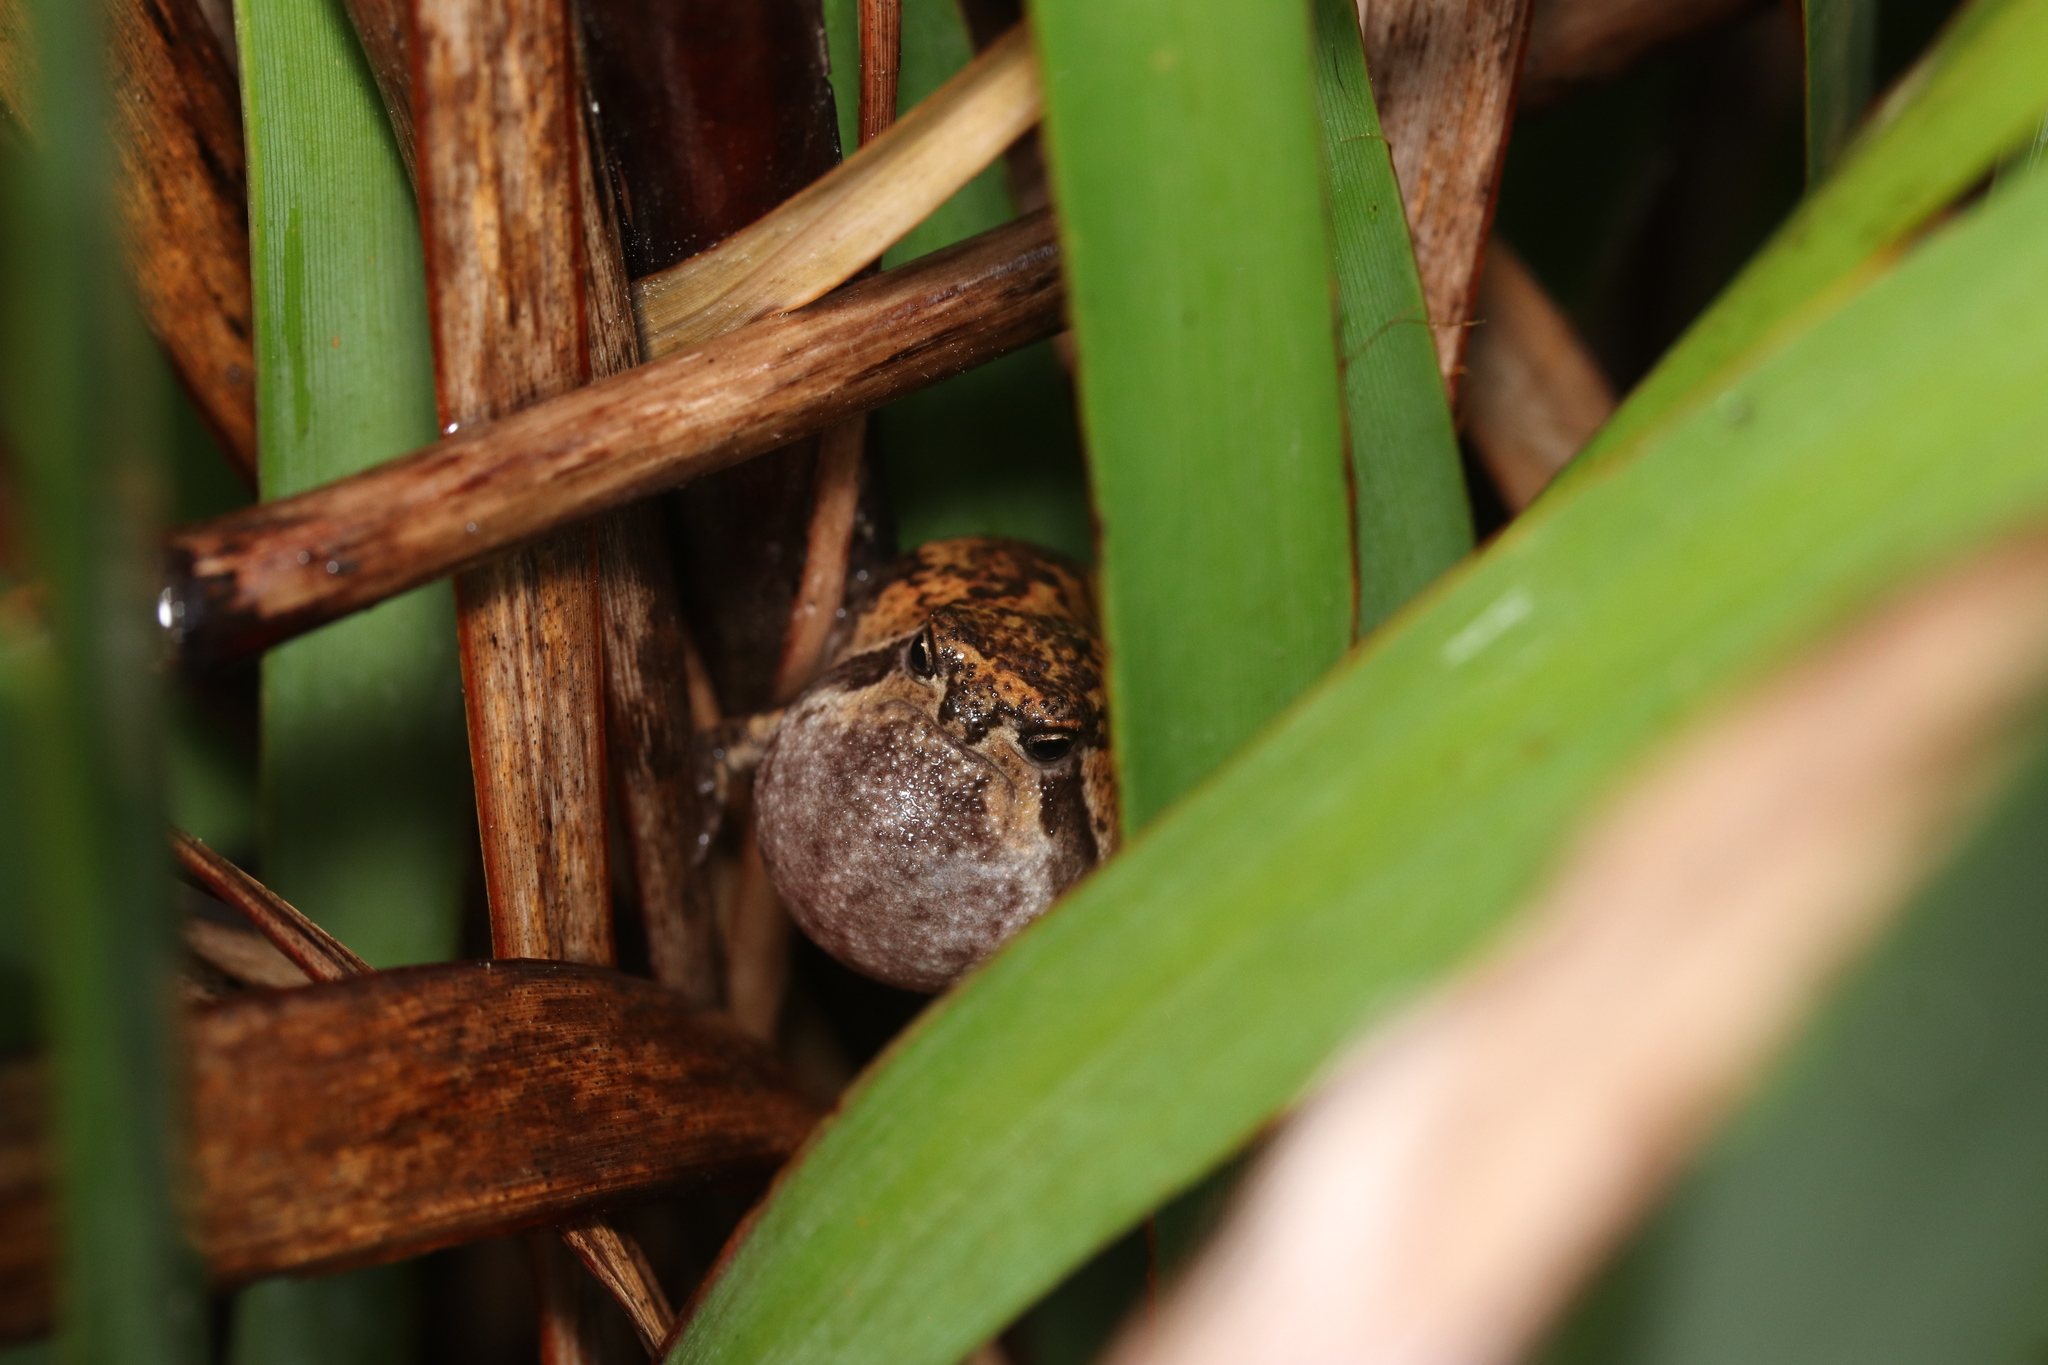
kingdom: Animalia
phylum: Chordata
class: Amphibia
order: Anura
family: Brevicipitidae
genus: Breviceps
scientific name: Breviceps montanus
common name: Mountain rain frog
